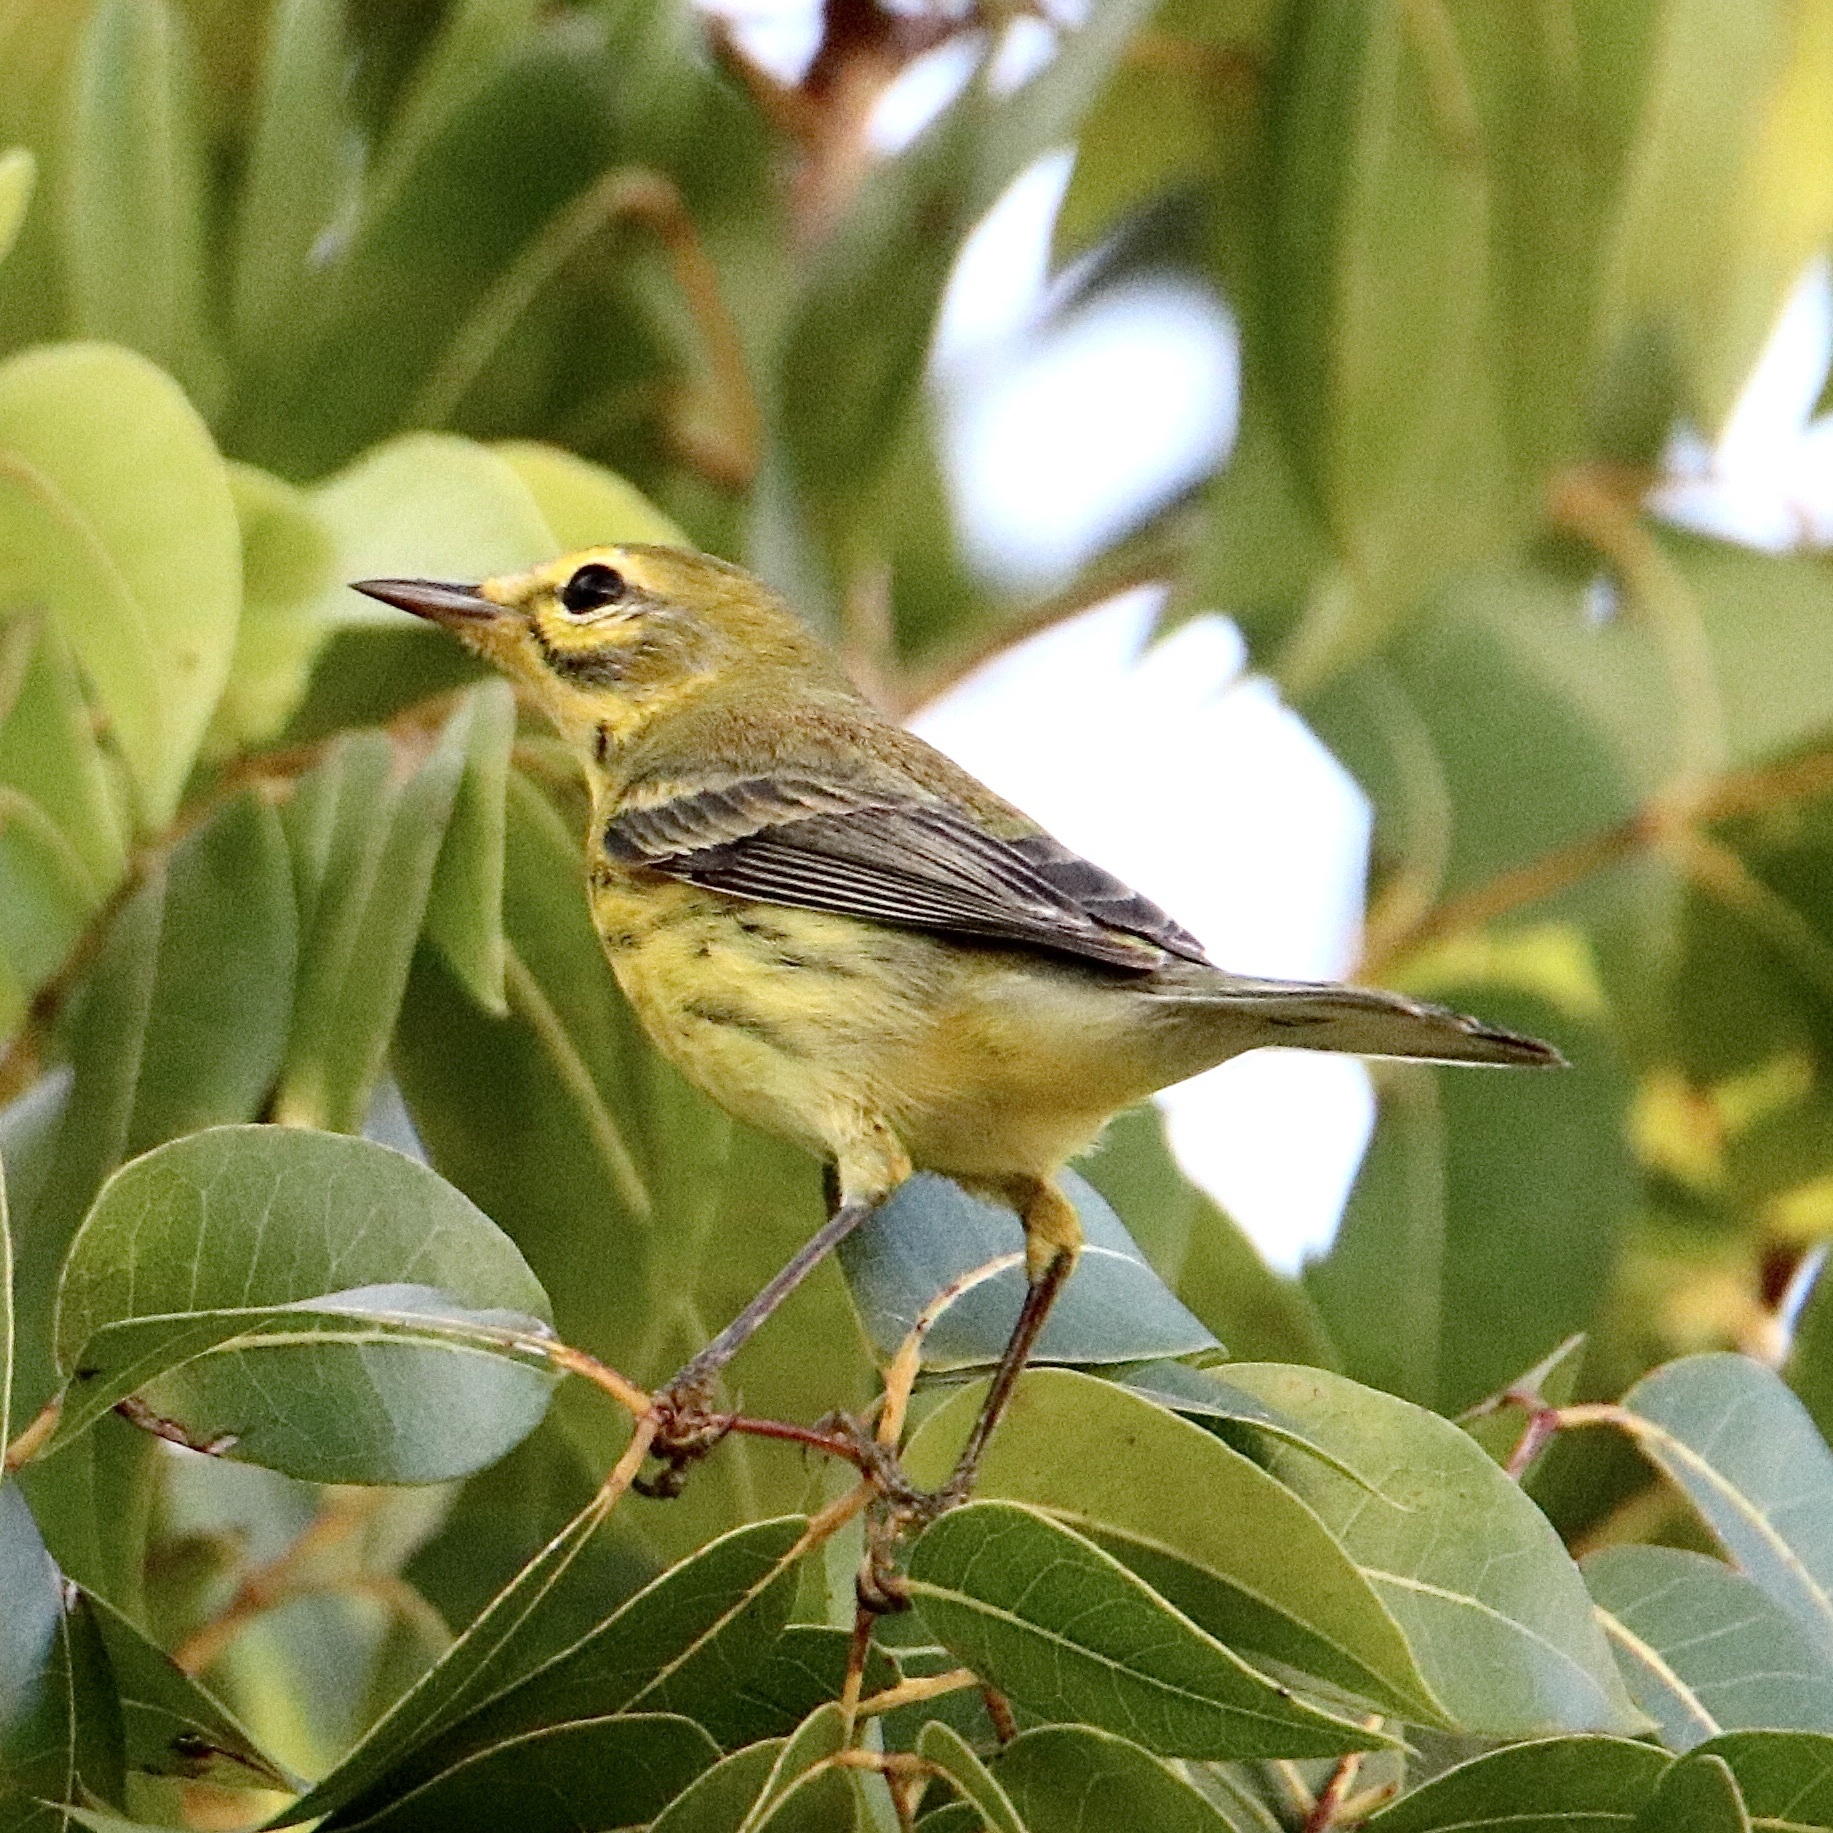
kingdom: Animalia
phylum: Chordata
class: Aves
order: Passeriformes
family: Parulidae
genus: Setophaga
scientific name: Setophaga discolor
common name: Prairie warbler
